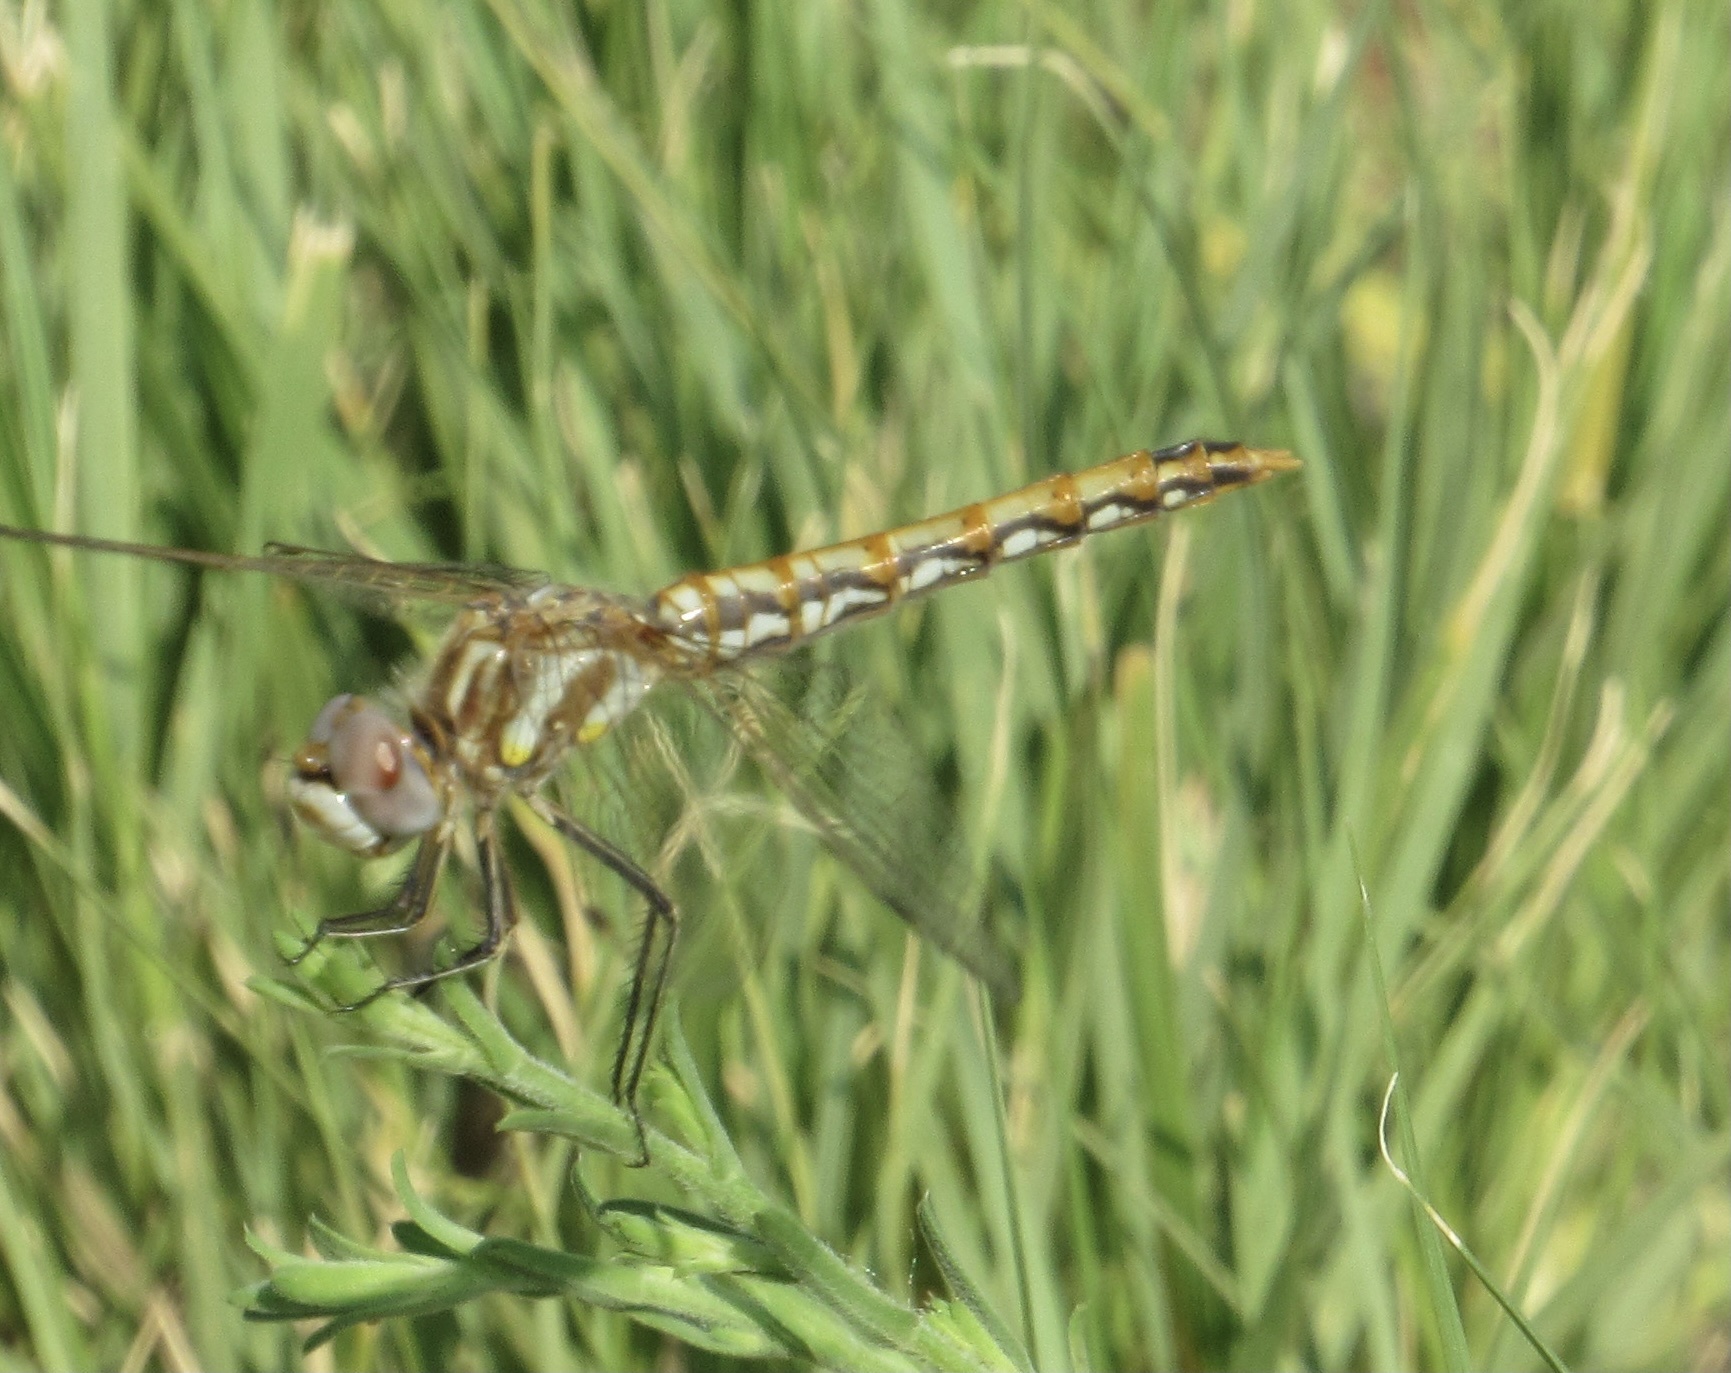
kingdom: Animalia
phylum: Arthropoda
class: Insecta
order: Odonata
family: Libellulidae
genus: Sympetrum
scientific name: Sympetrum corruptum
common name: Variegated meadowhawk
